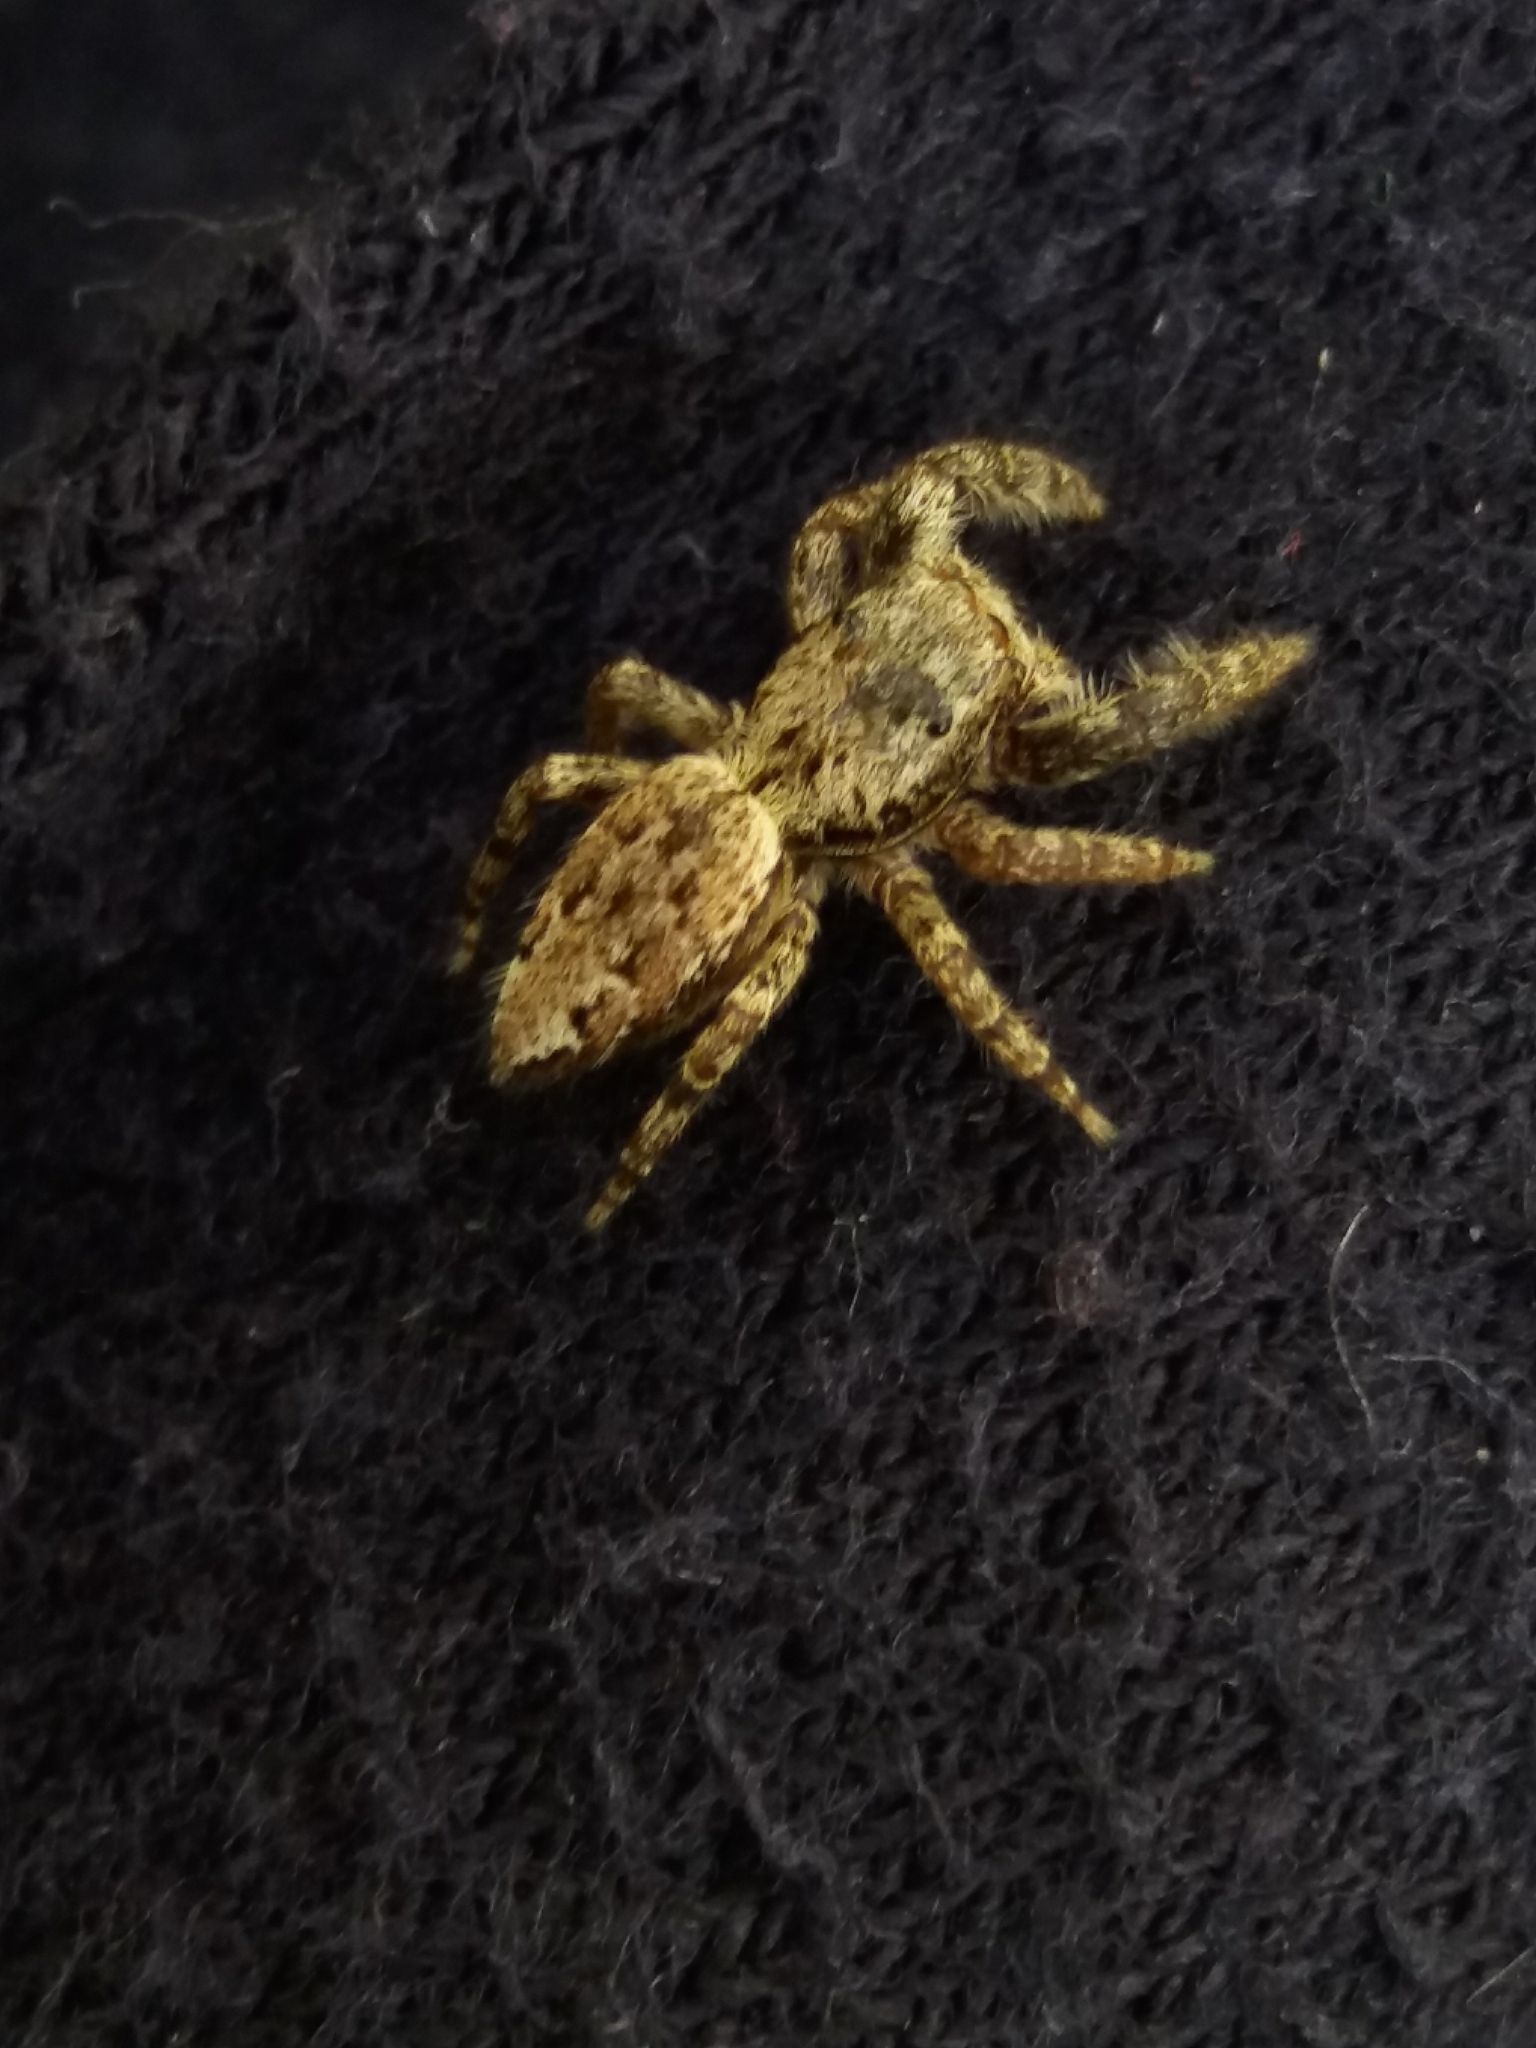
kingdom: Animalia
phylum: Arthropoda
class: Arachnida
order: Araneae
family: Salticidae
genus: Marpissa
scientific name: Marpissa muscosa
